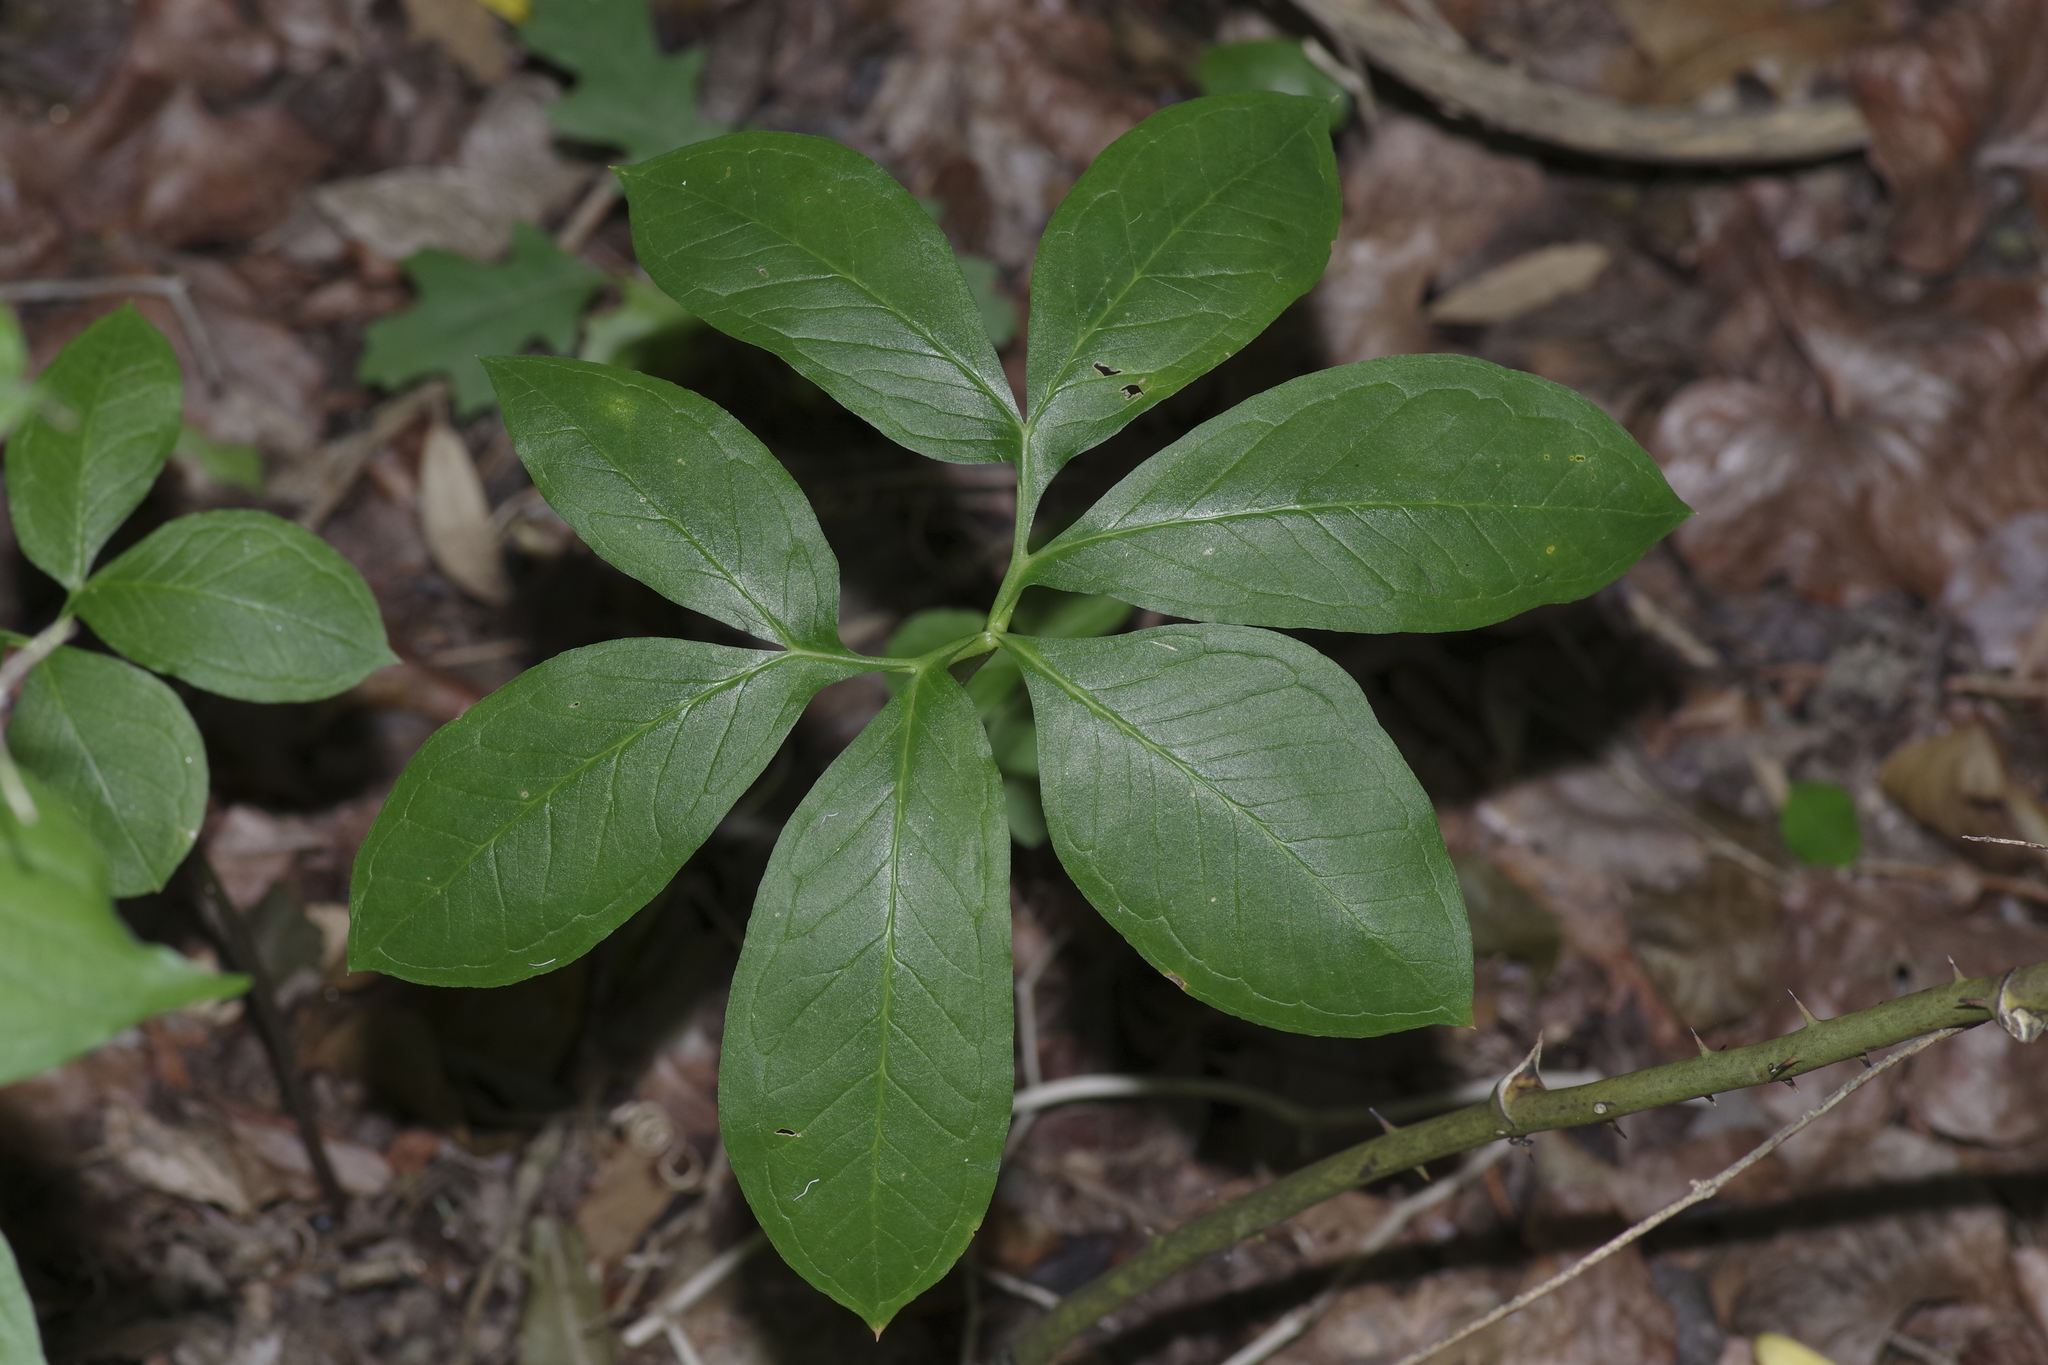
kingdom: Plantae
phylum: Tracheophyta
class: Liliopsida
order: Alismatales
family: Araceae
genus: Arisaema
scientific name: Arisaema dracontium
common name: Dragon-arum
